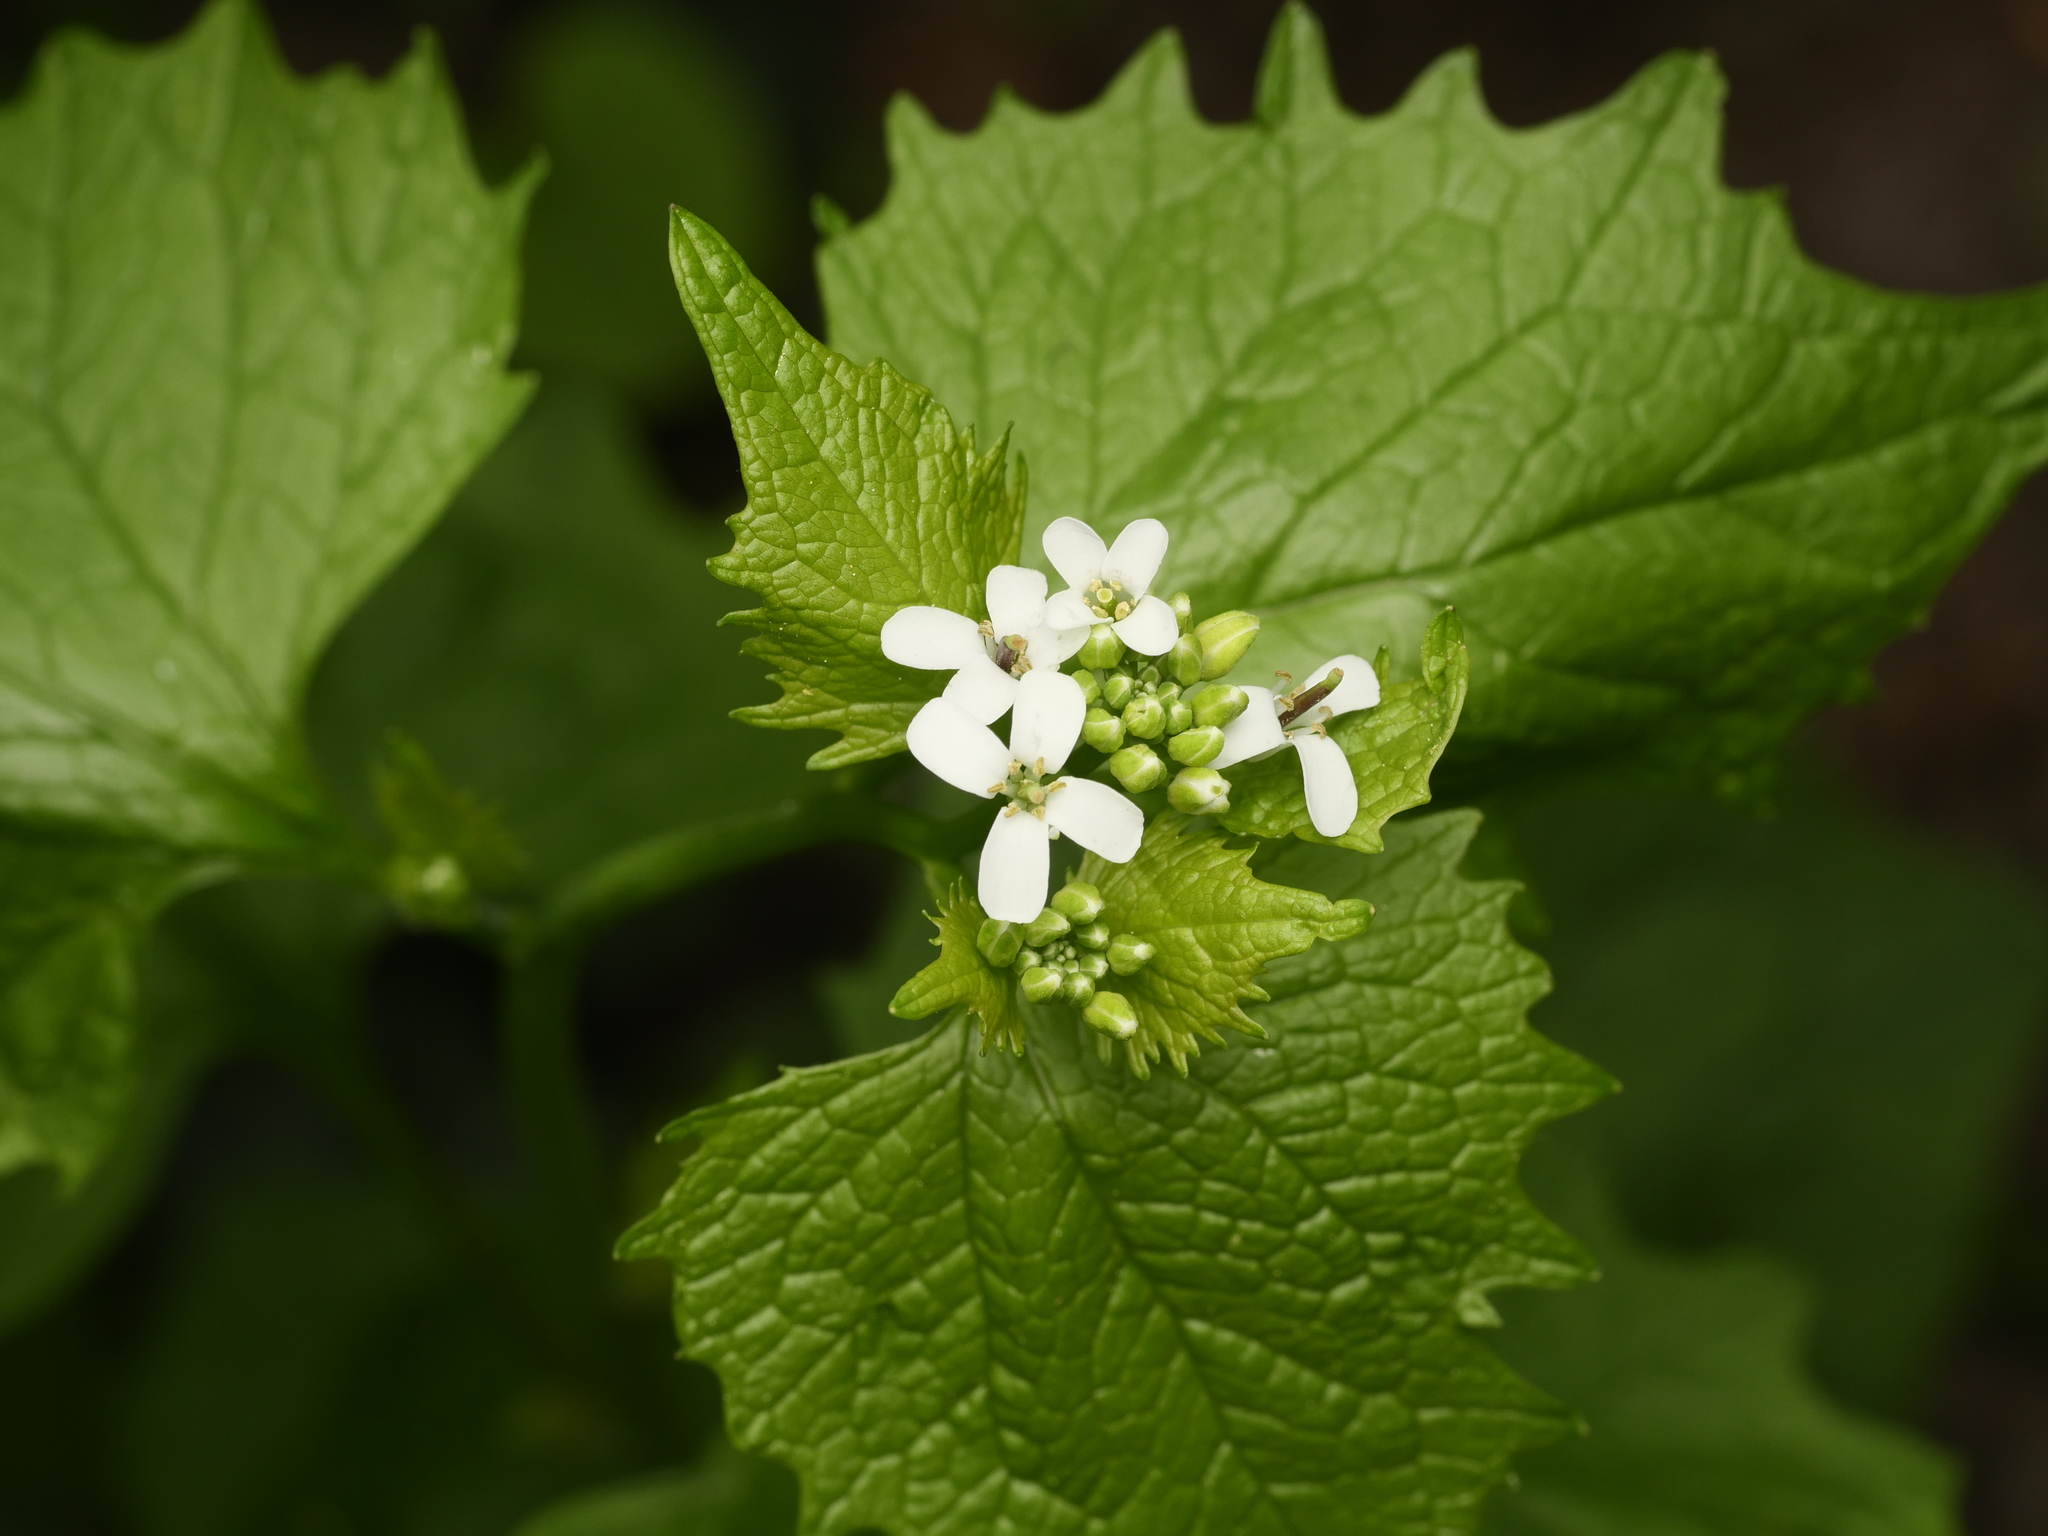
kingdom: Plantae
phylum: Tracheophyta
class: Magnoliopsida
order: Brassicales
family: Brassicaceae
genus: Alliaria
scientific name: Alliaria petiolata
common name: Garlic mustard
